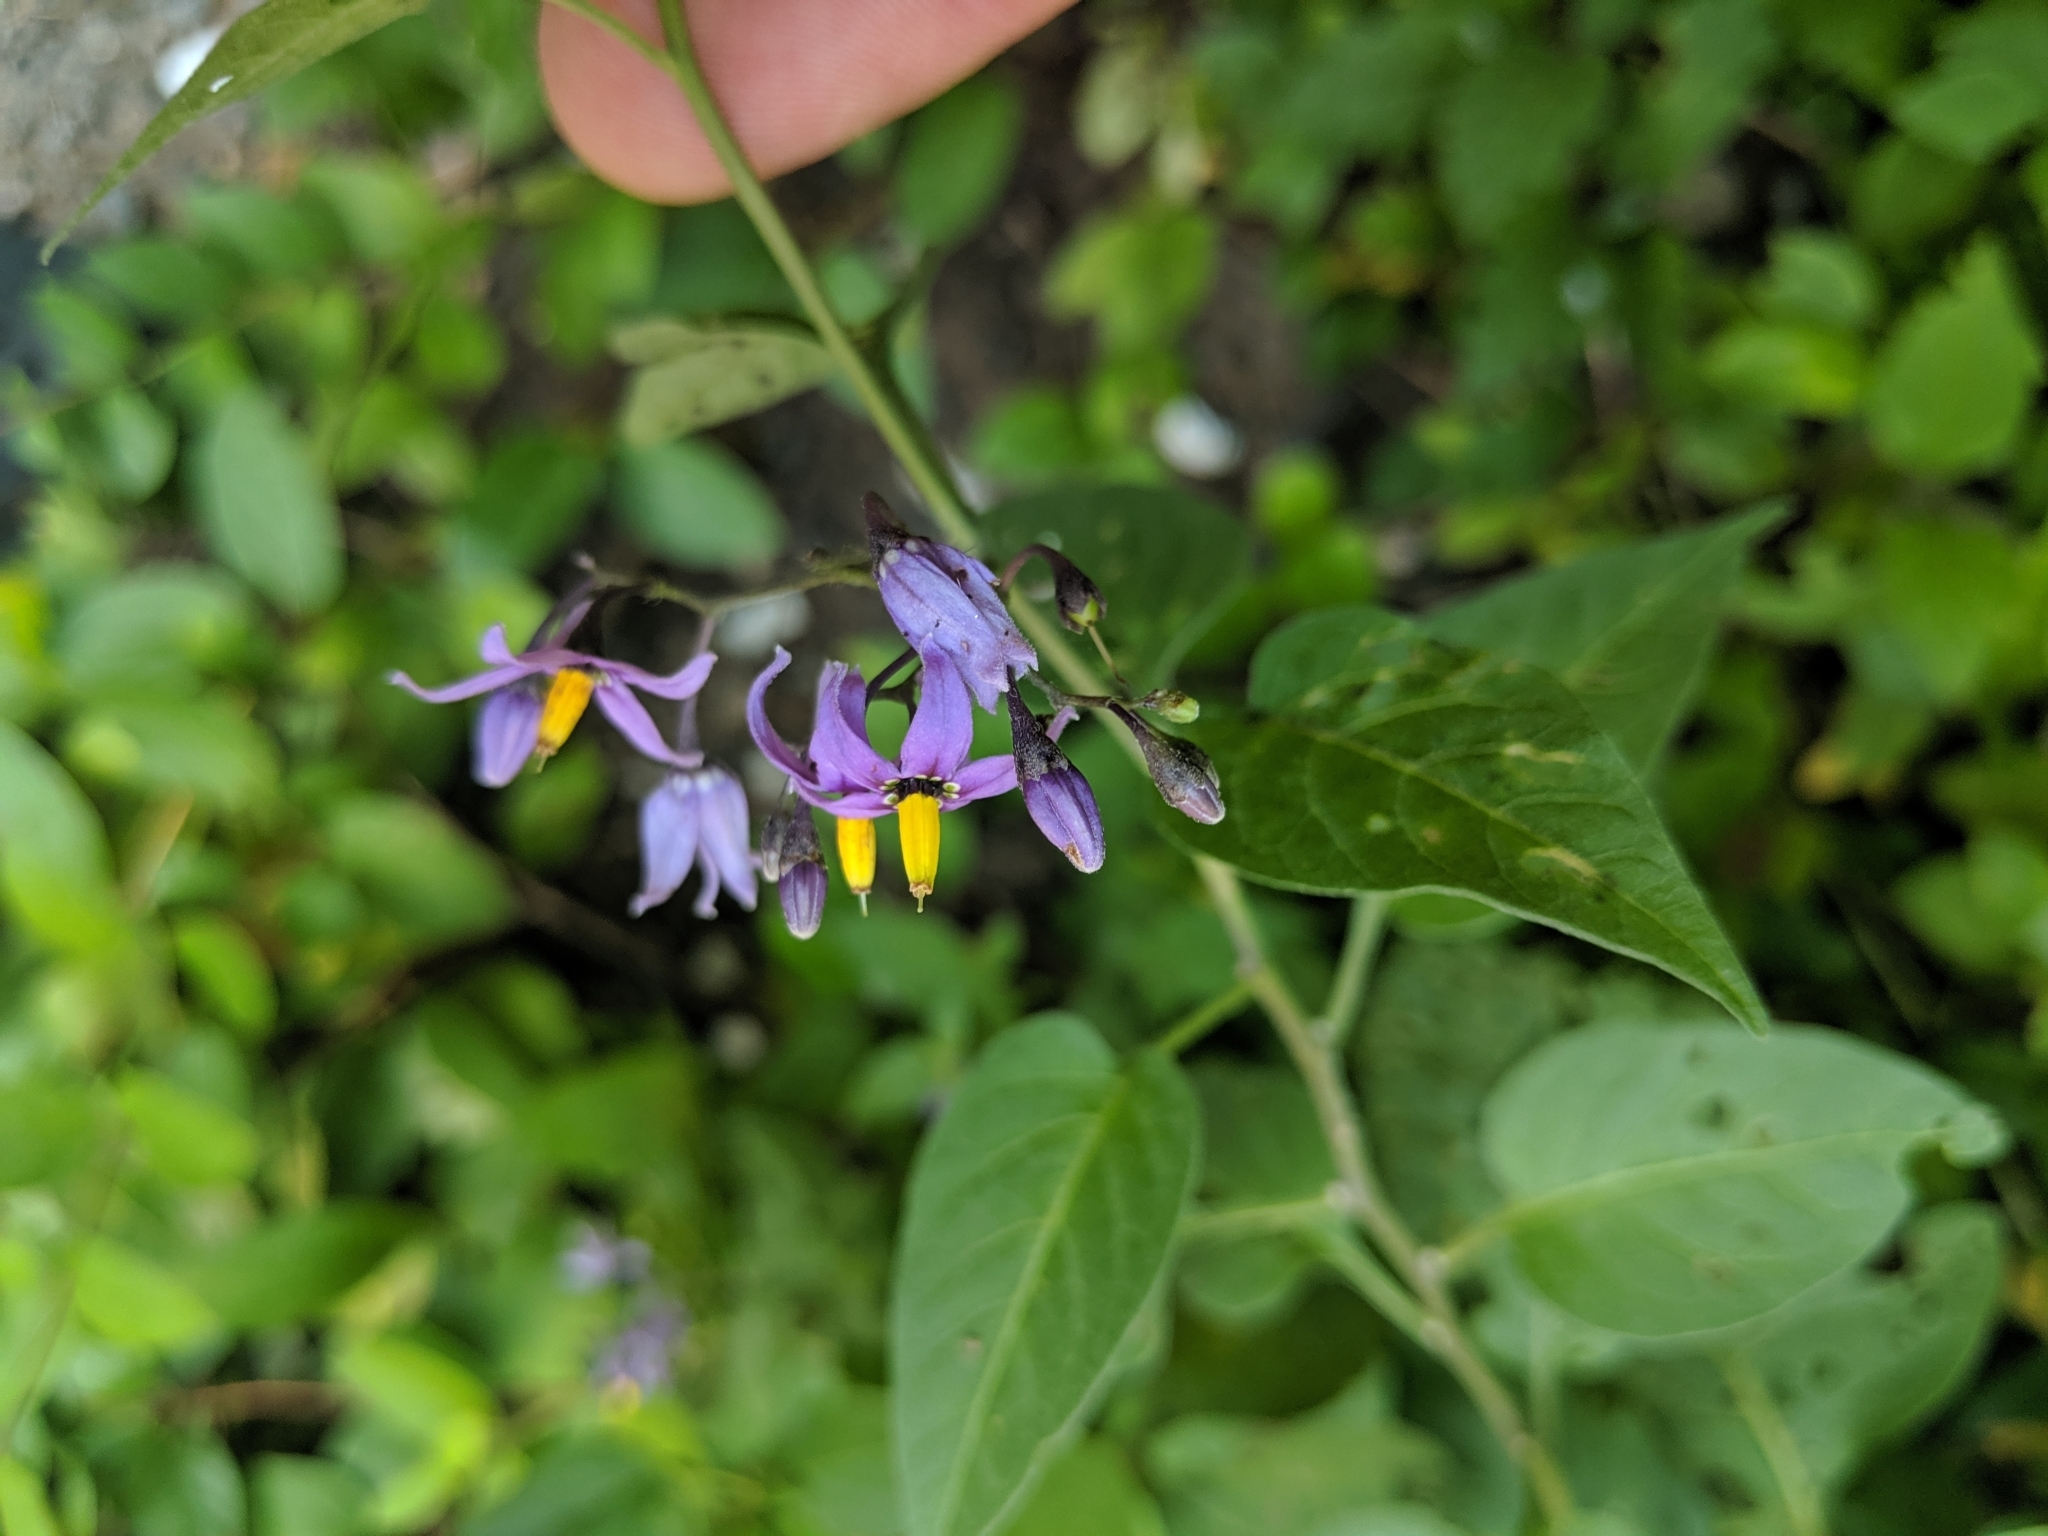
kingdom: Plantae
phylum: Tracheophyta
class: Magnoliopsida
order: Solanales
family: Solanaceae
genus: Solanum
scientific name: Solanum dulcamara
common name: Climbing nightshade
